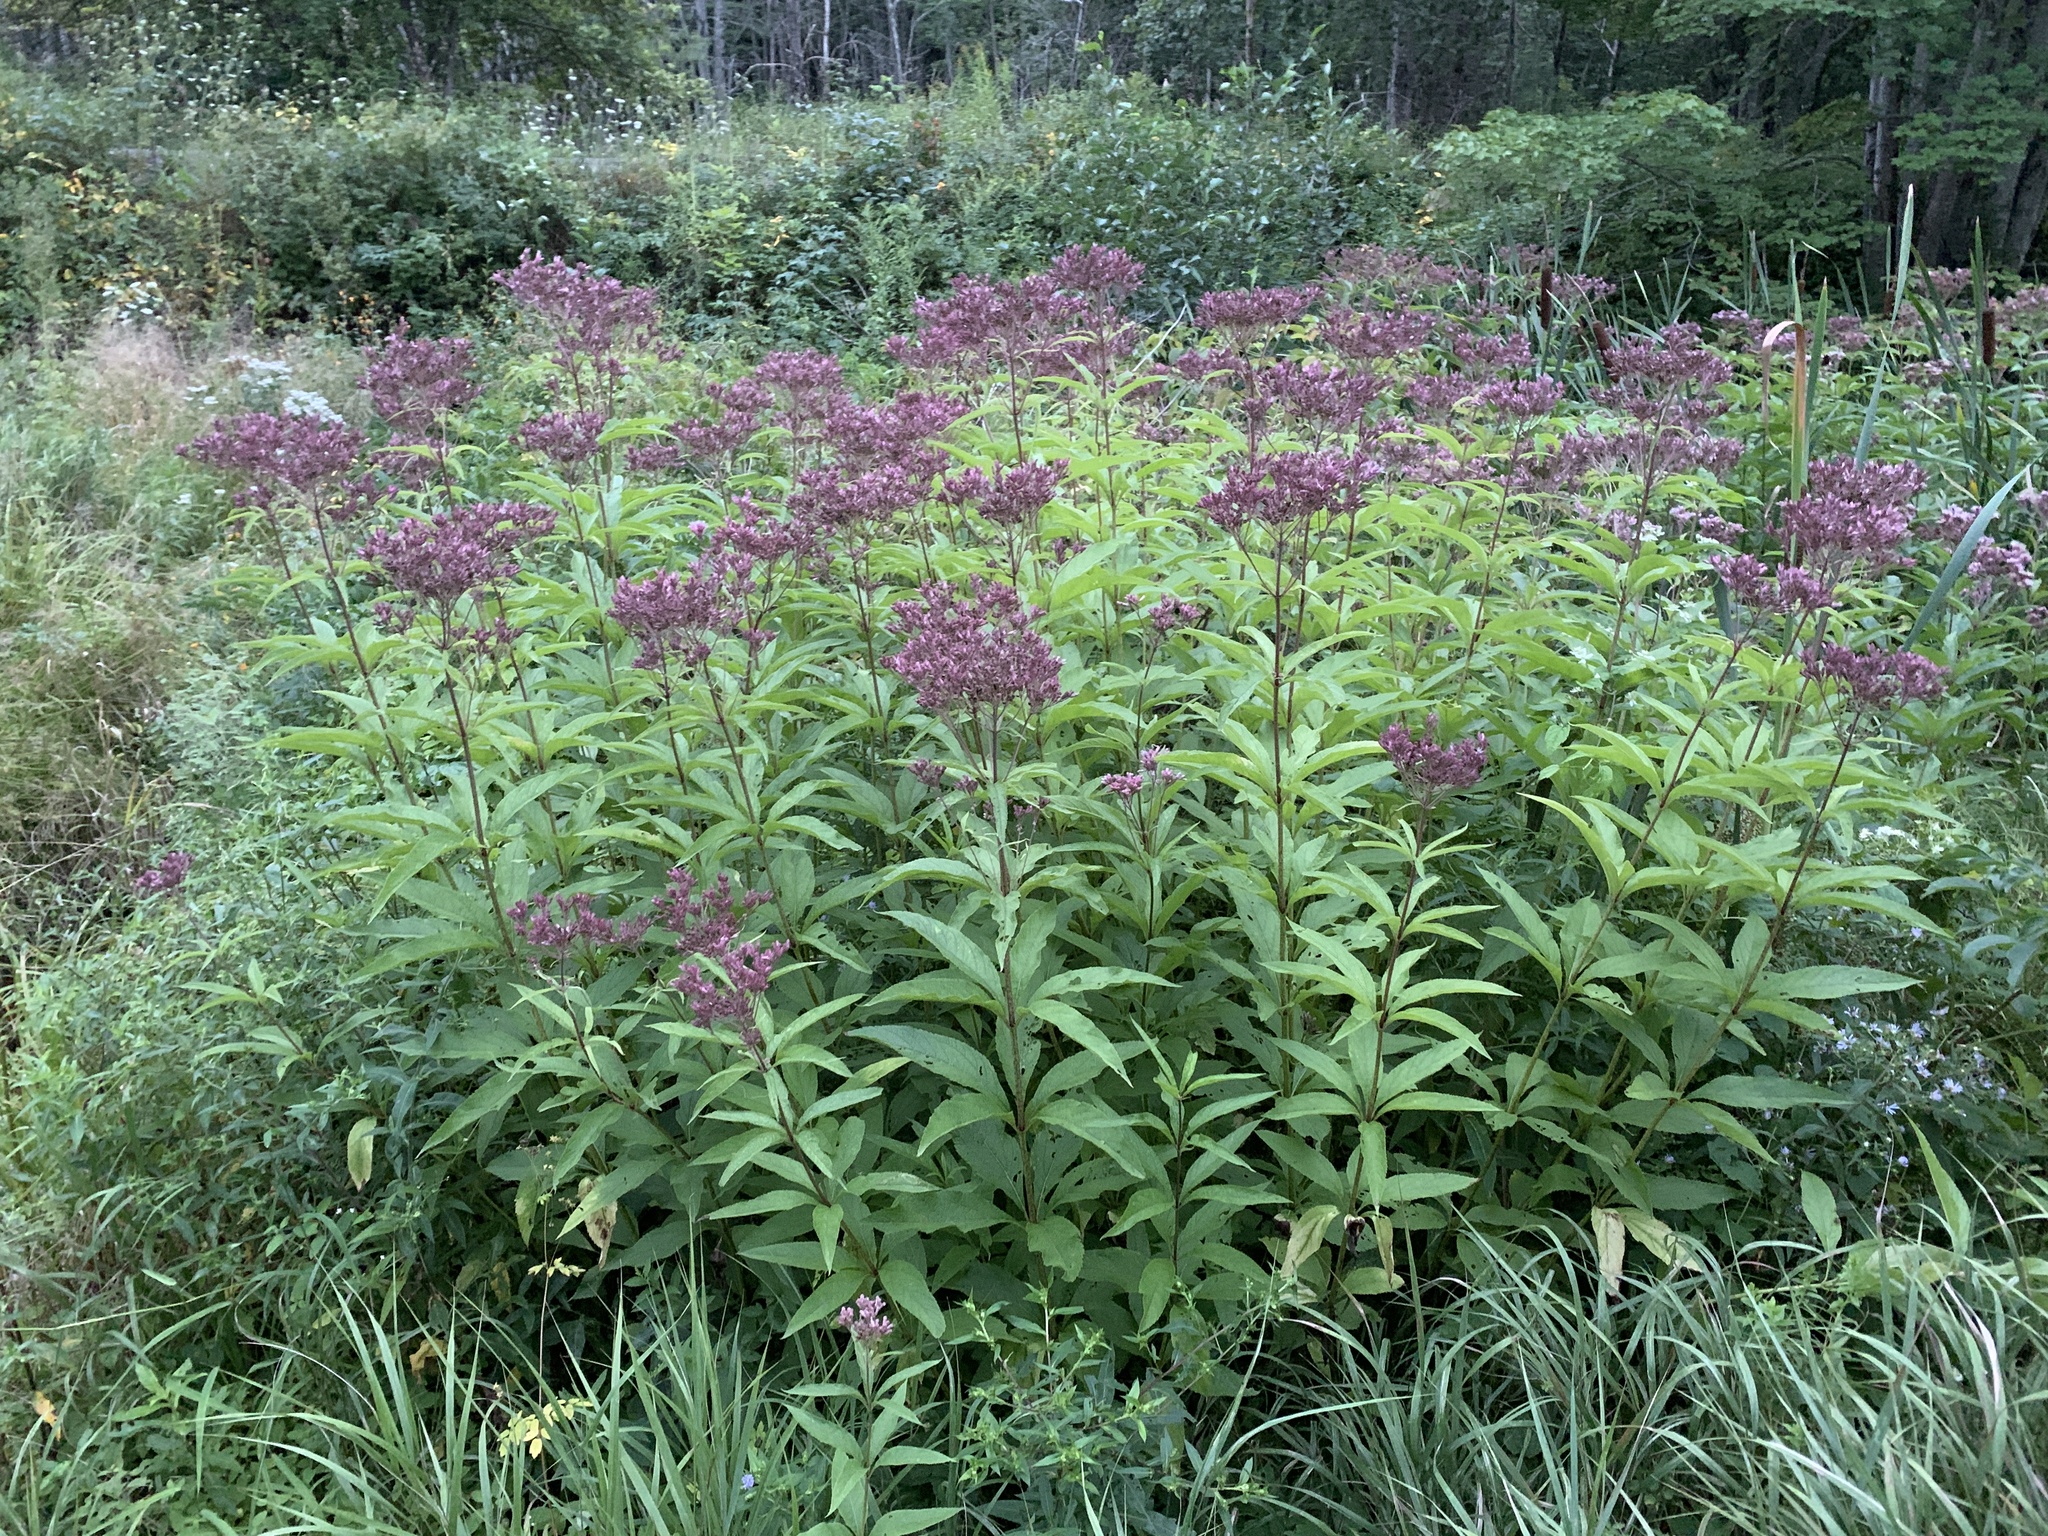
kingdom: Plantae
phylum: Tracheophyta
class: Magnoliopsida
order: Asterales
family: Asteraceae
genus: Eutrochium
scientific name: Eutrochium maculatum
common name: Spotted joe pye weed
